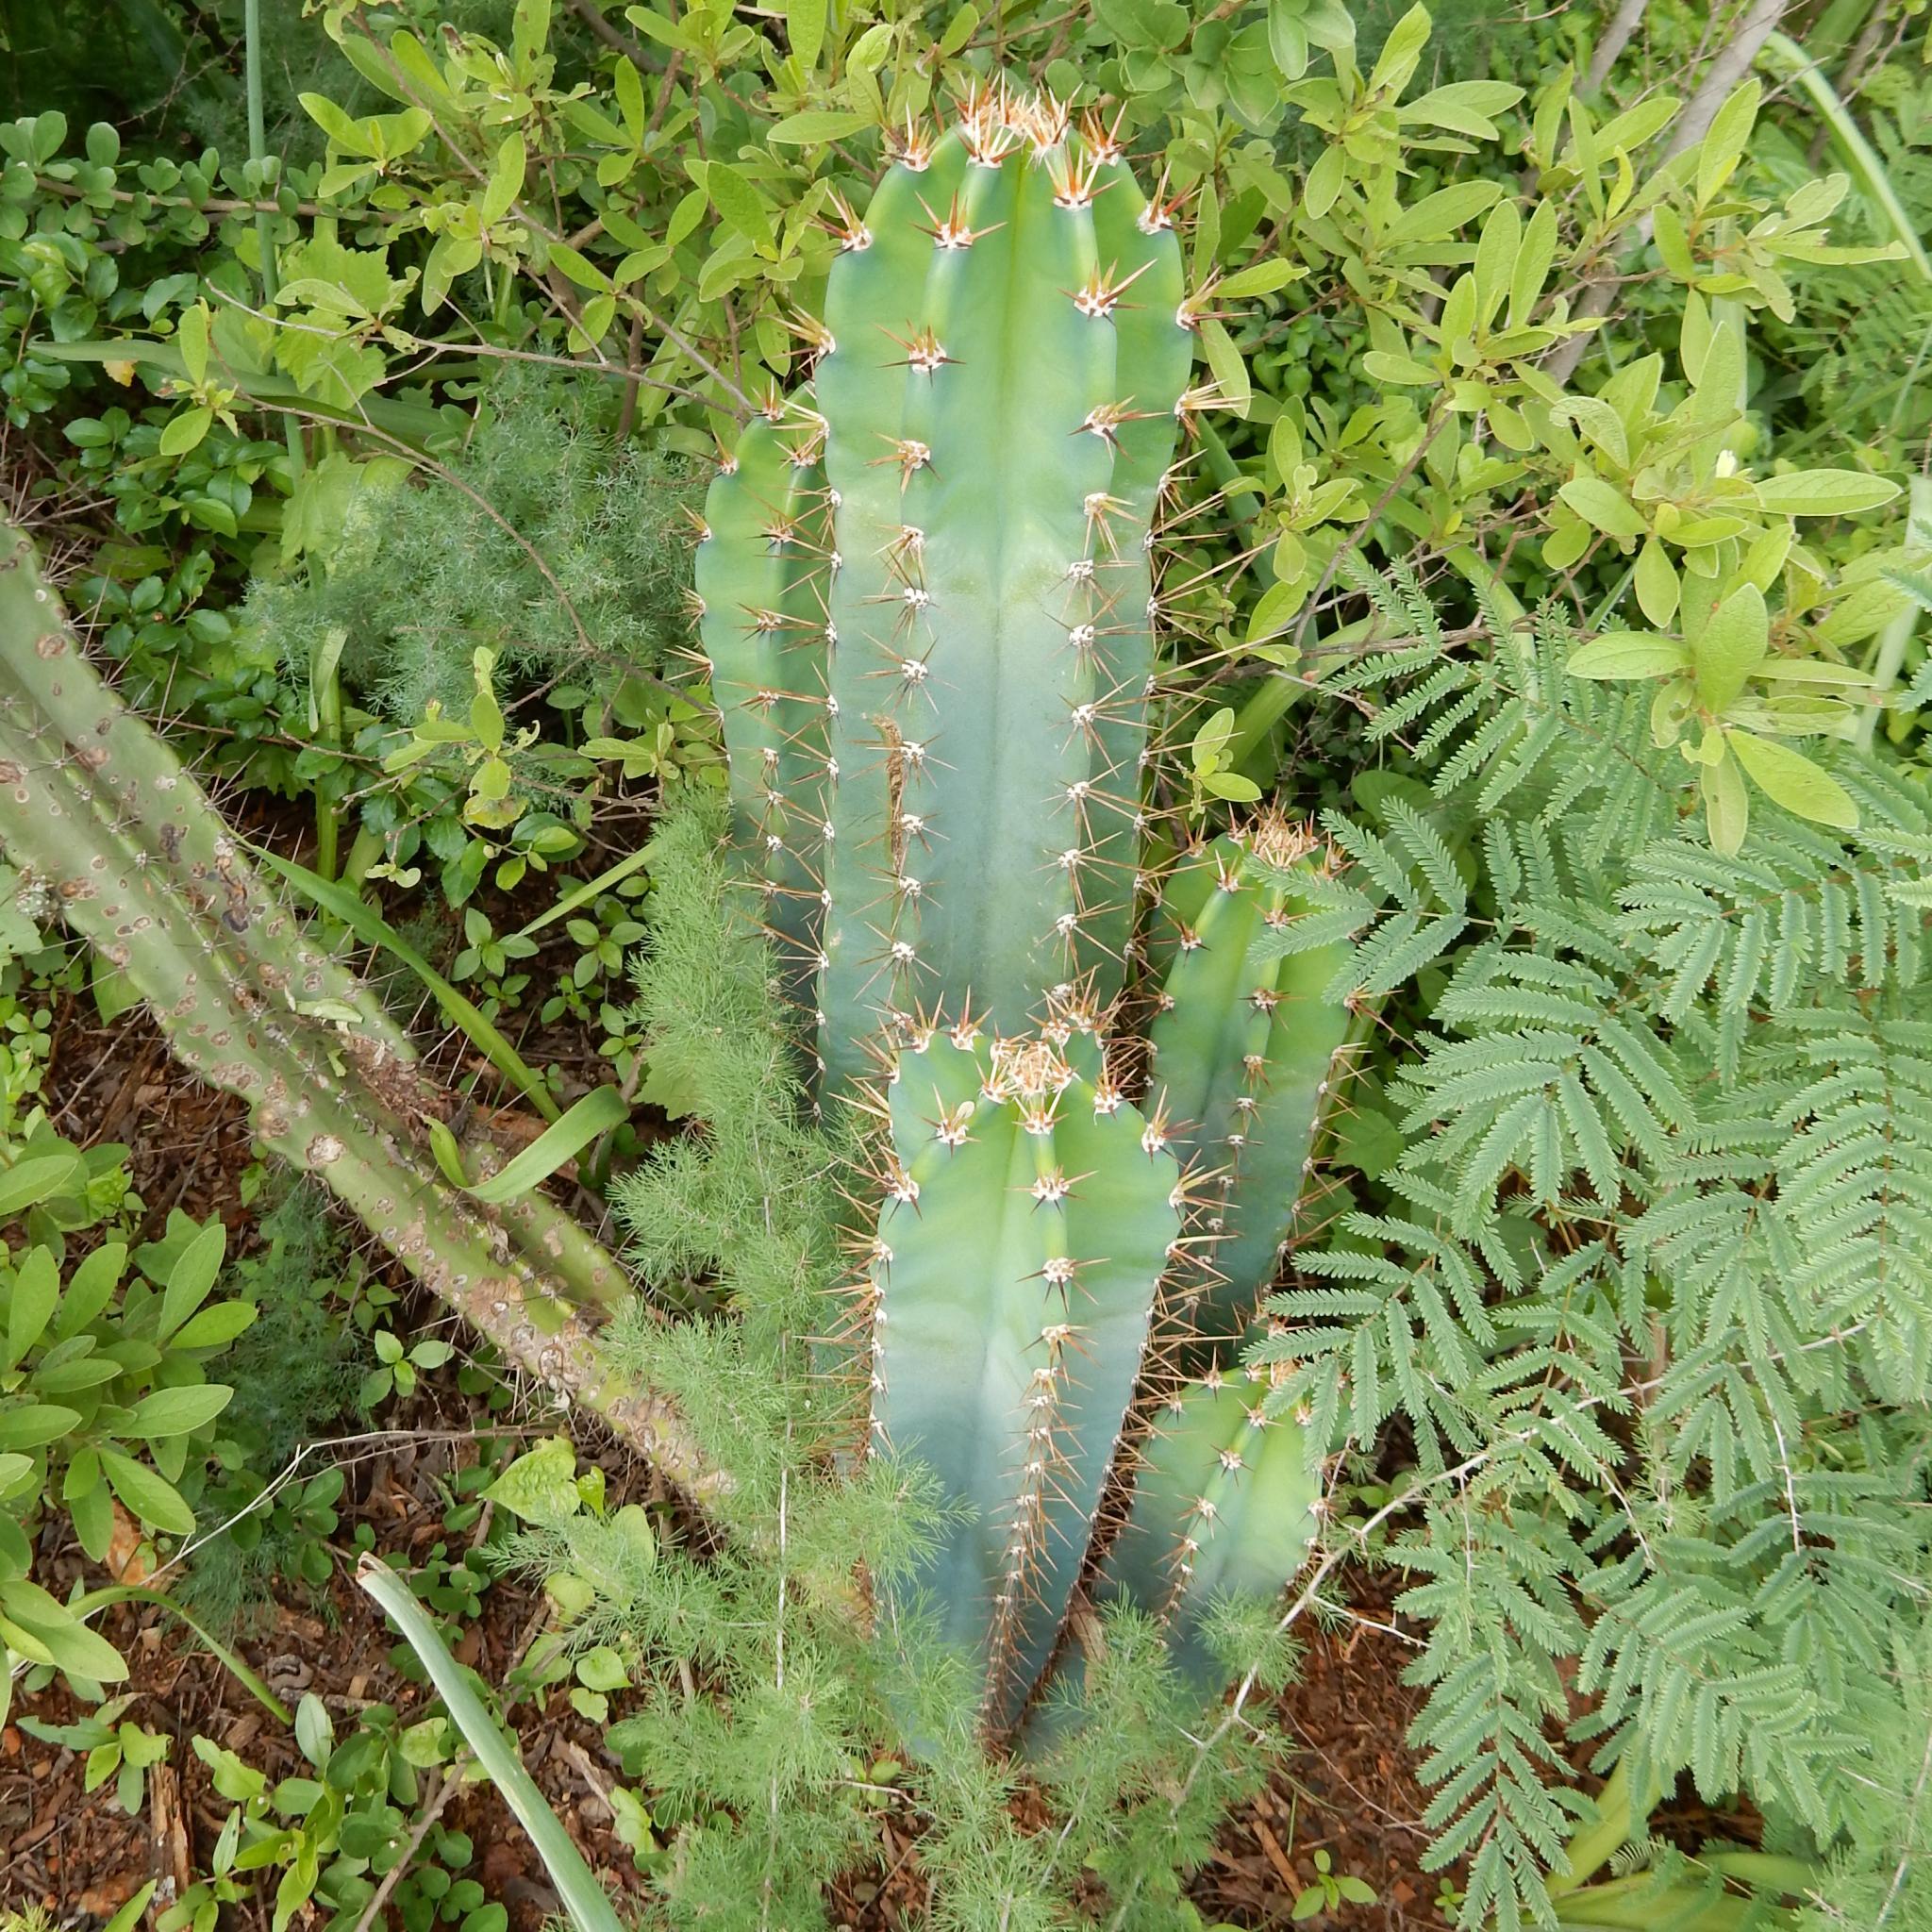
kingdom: Plantae
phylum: Tracheophyta
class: Magnoliopsida
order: Caryophyllales
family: Cactaceae
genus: Cereus
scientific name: Cereus jamacaru
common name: Queen-of-the-night
